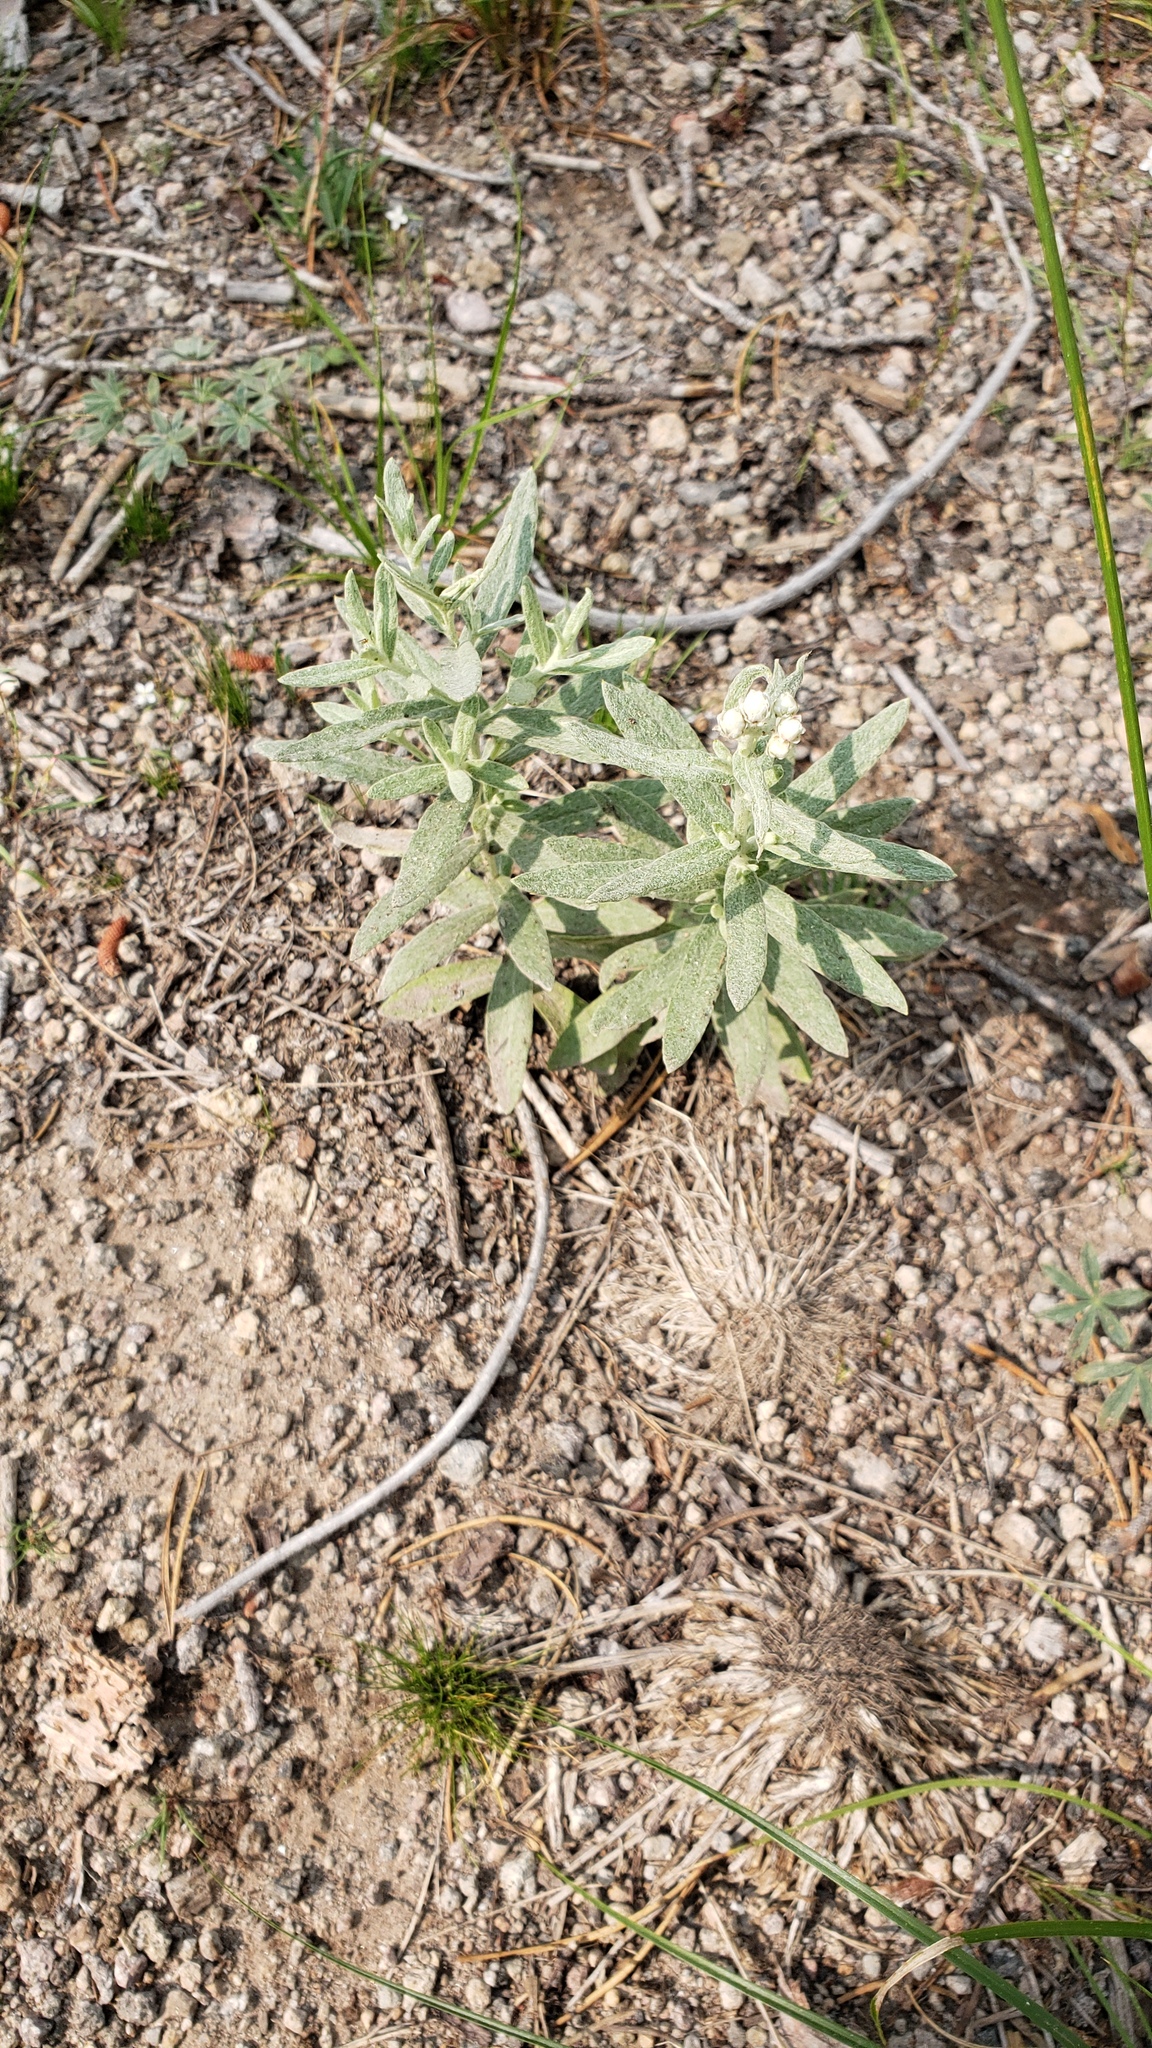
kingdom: Plantae
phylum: Tracheophyta
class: Magnoliopsida
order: Asterales
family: Asteraceae
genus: Anaphalis
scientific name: Anaphalis margaritacea
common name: Pearly everlasting
